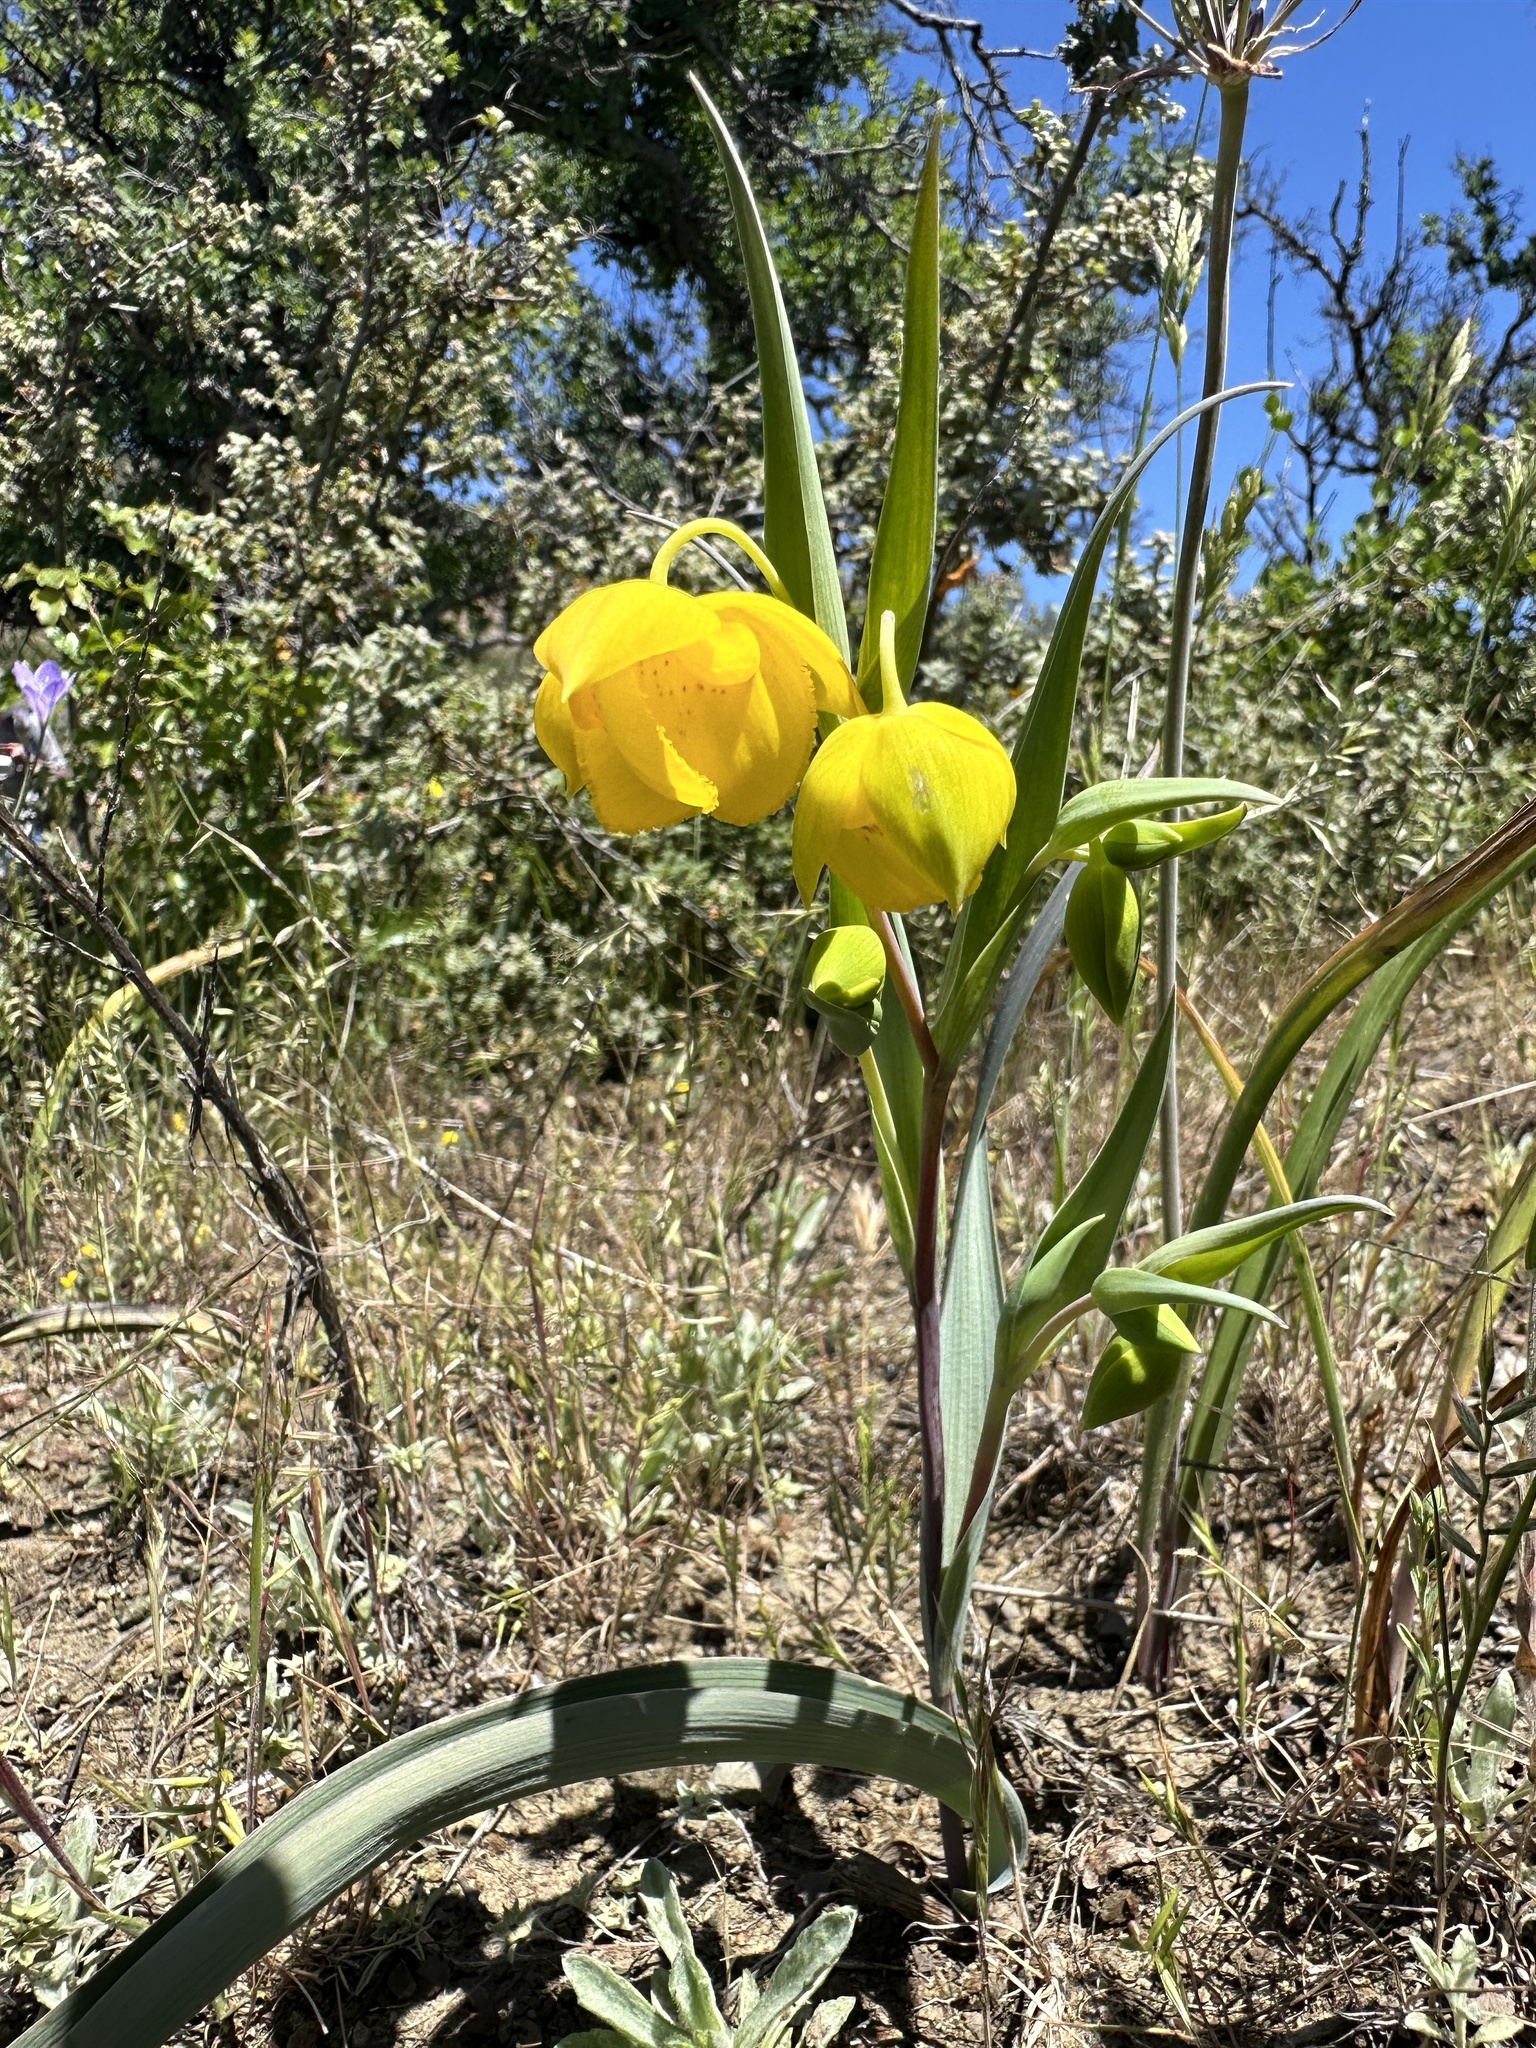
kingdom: Plantae
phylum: Tracheophyta
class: Liliopsida
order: Liliales
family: Liliaceae
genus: Calochortus
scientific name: Calochortus amabilis
